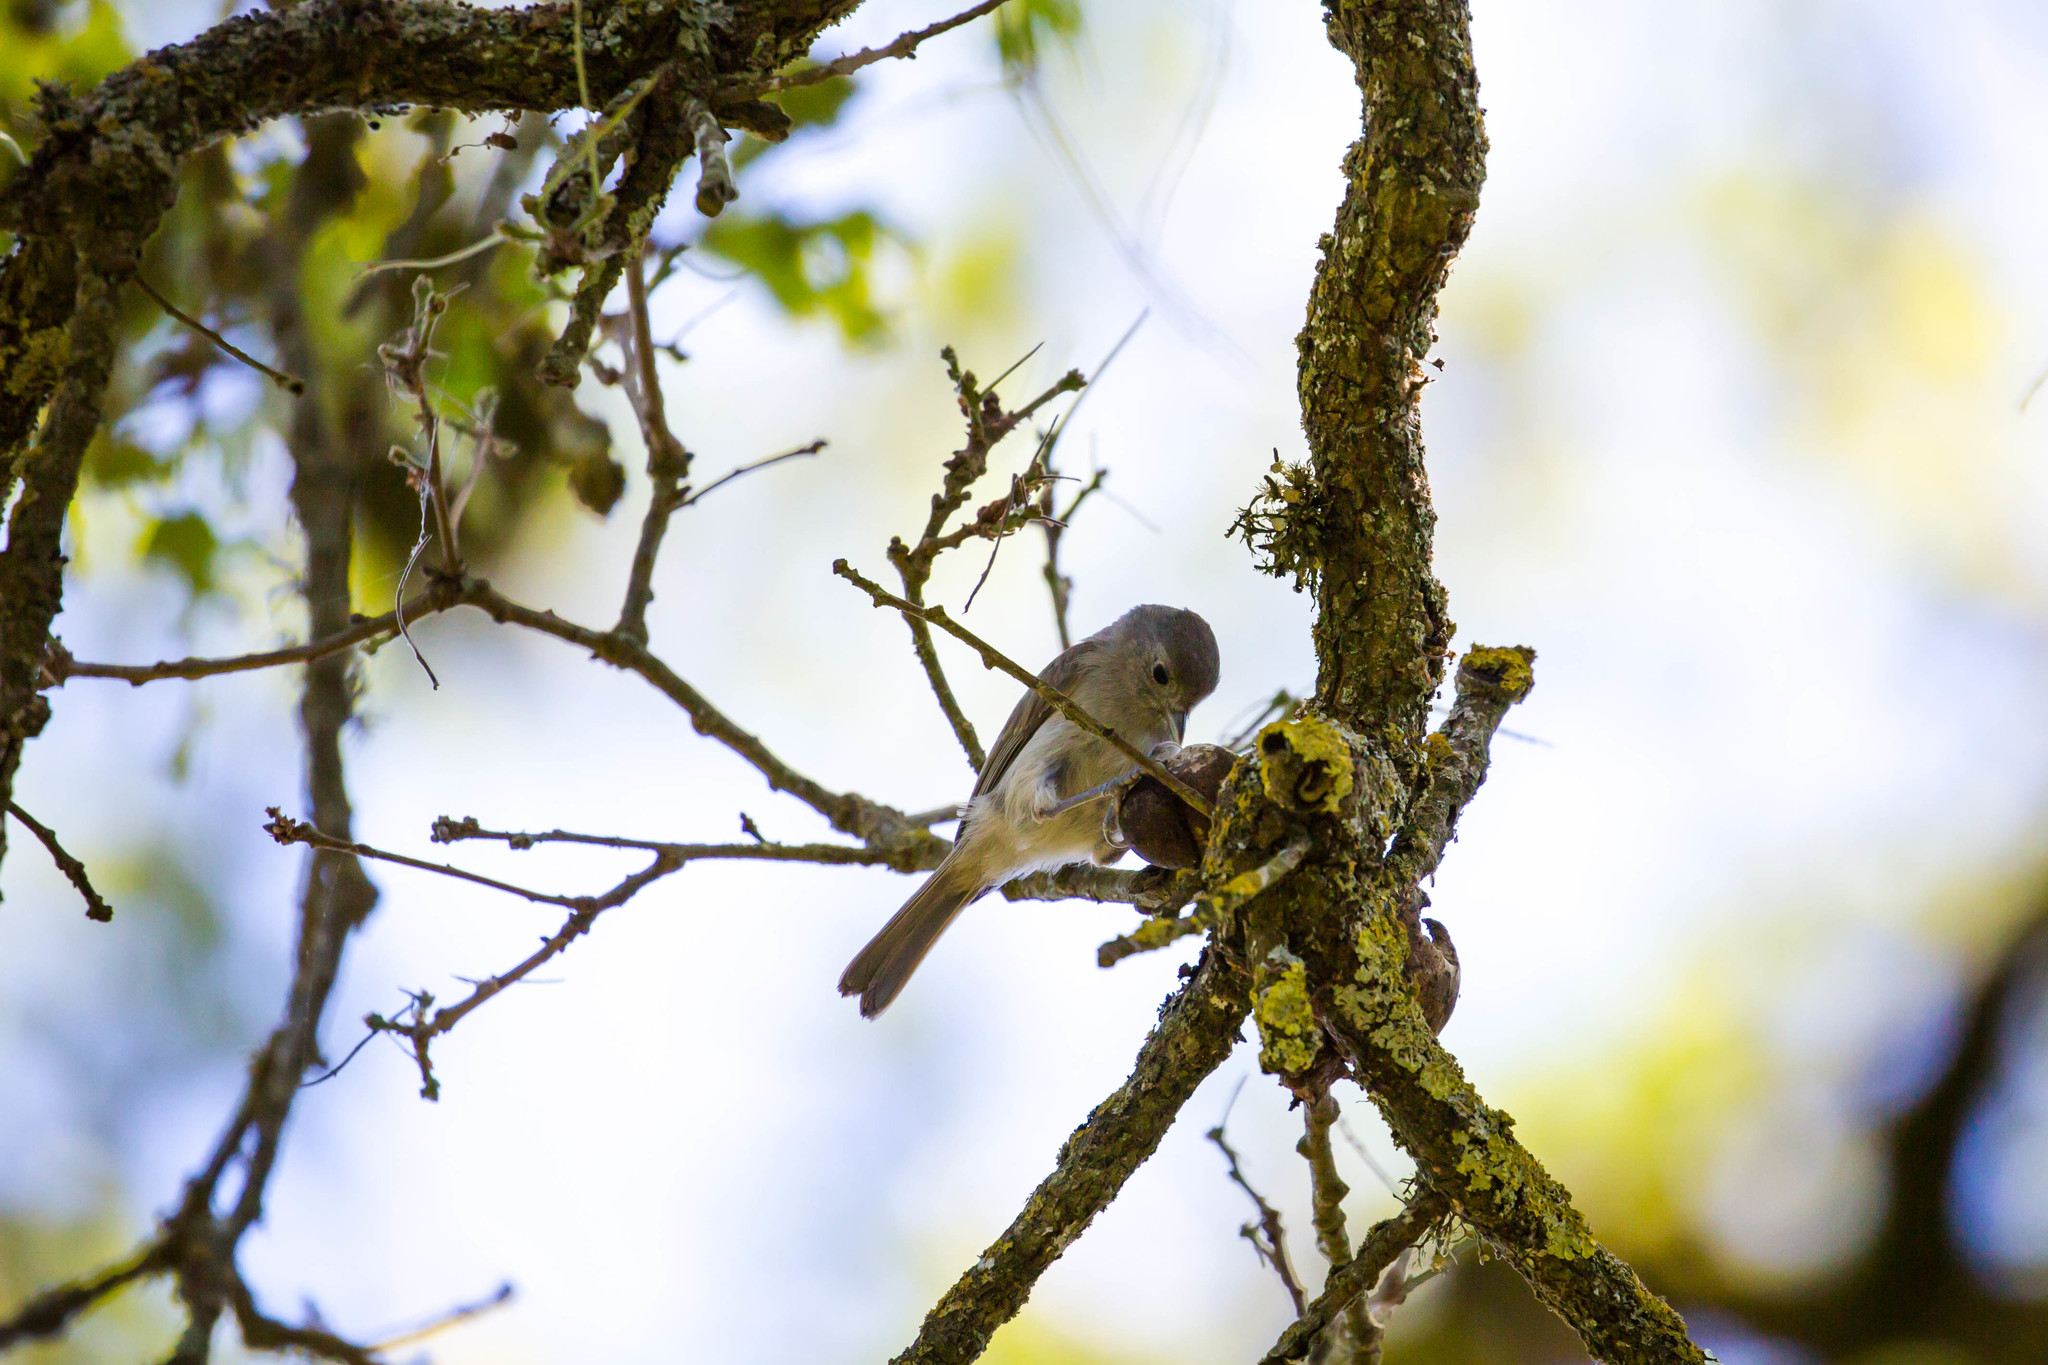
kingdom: Animalia
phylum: Chordata
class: Aves
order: Passeriformes
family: Paridae
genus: Baeolophus
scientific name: Baeolophus inornatus
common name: Oak titmouse
